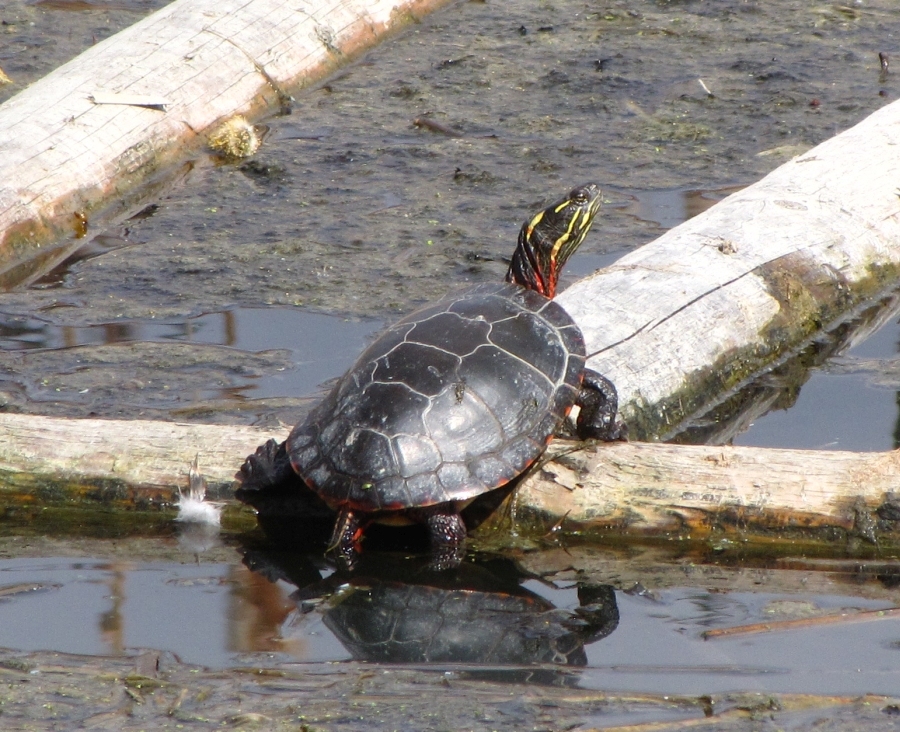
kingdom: Animalia
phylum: Chordata
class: Testudines
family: Emydidae
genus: Chrysemys
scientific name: Chrysemys picta
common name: Painted turtle
